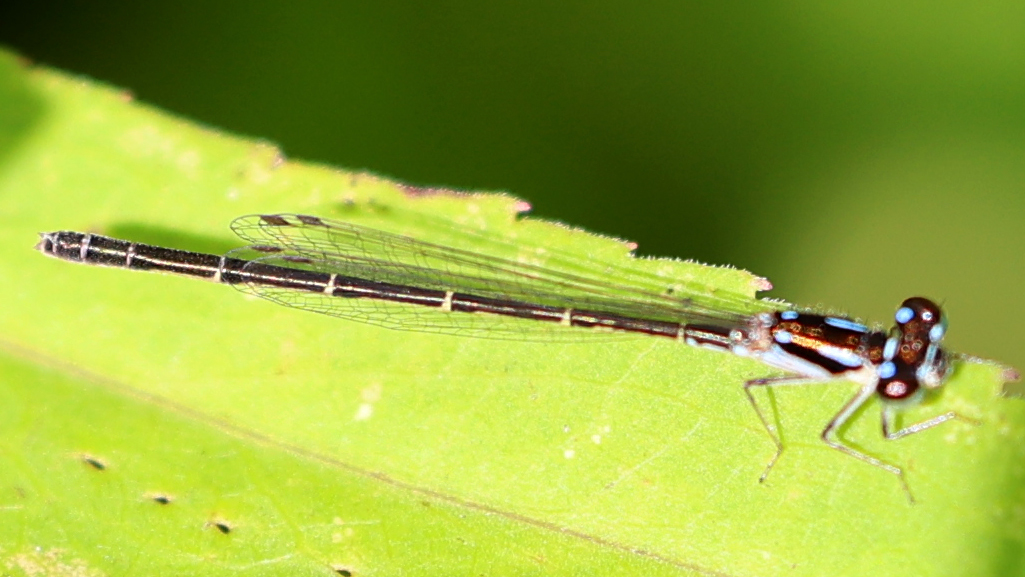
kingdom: Animalia
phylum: Arthropoda
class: Insecta
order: Odonata
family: Coenagrionidae
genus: Ischnura
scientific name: Ischnura posita
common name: Fragile forktail
